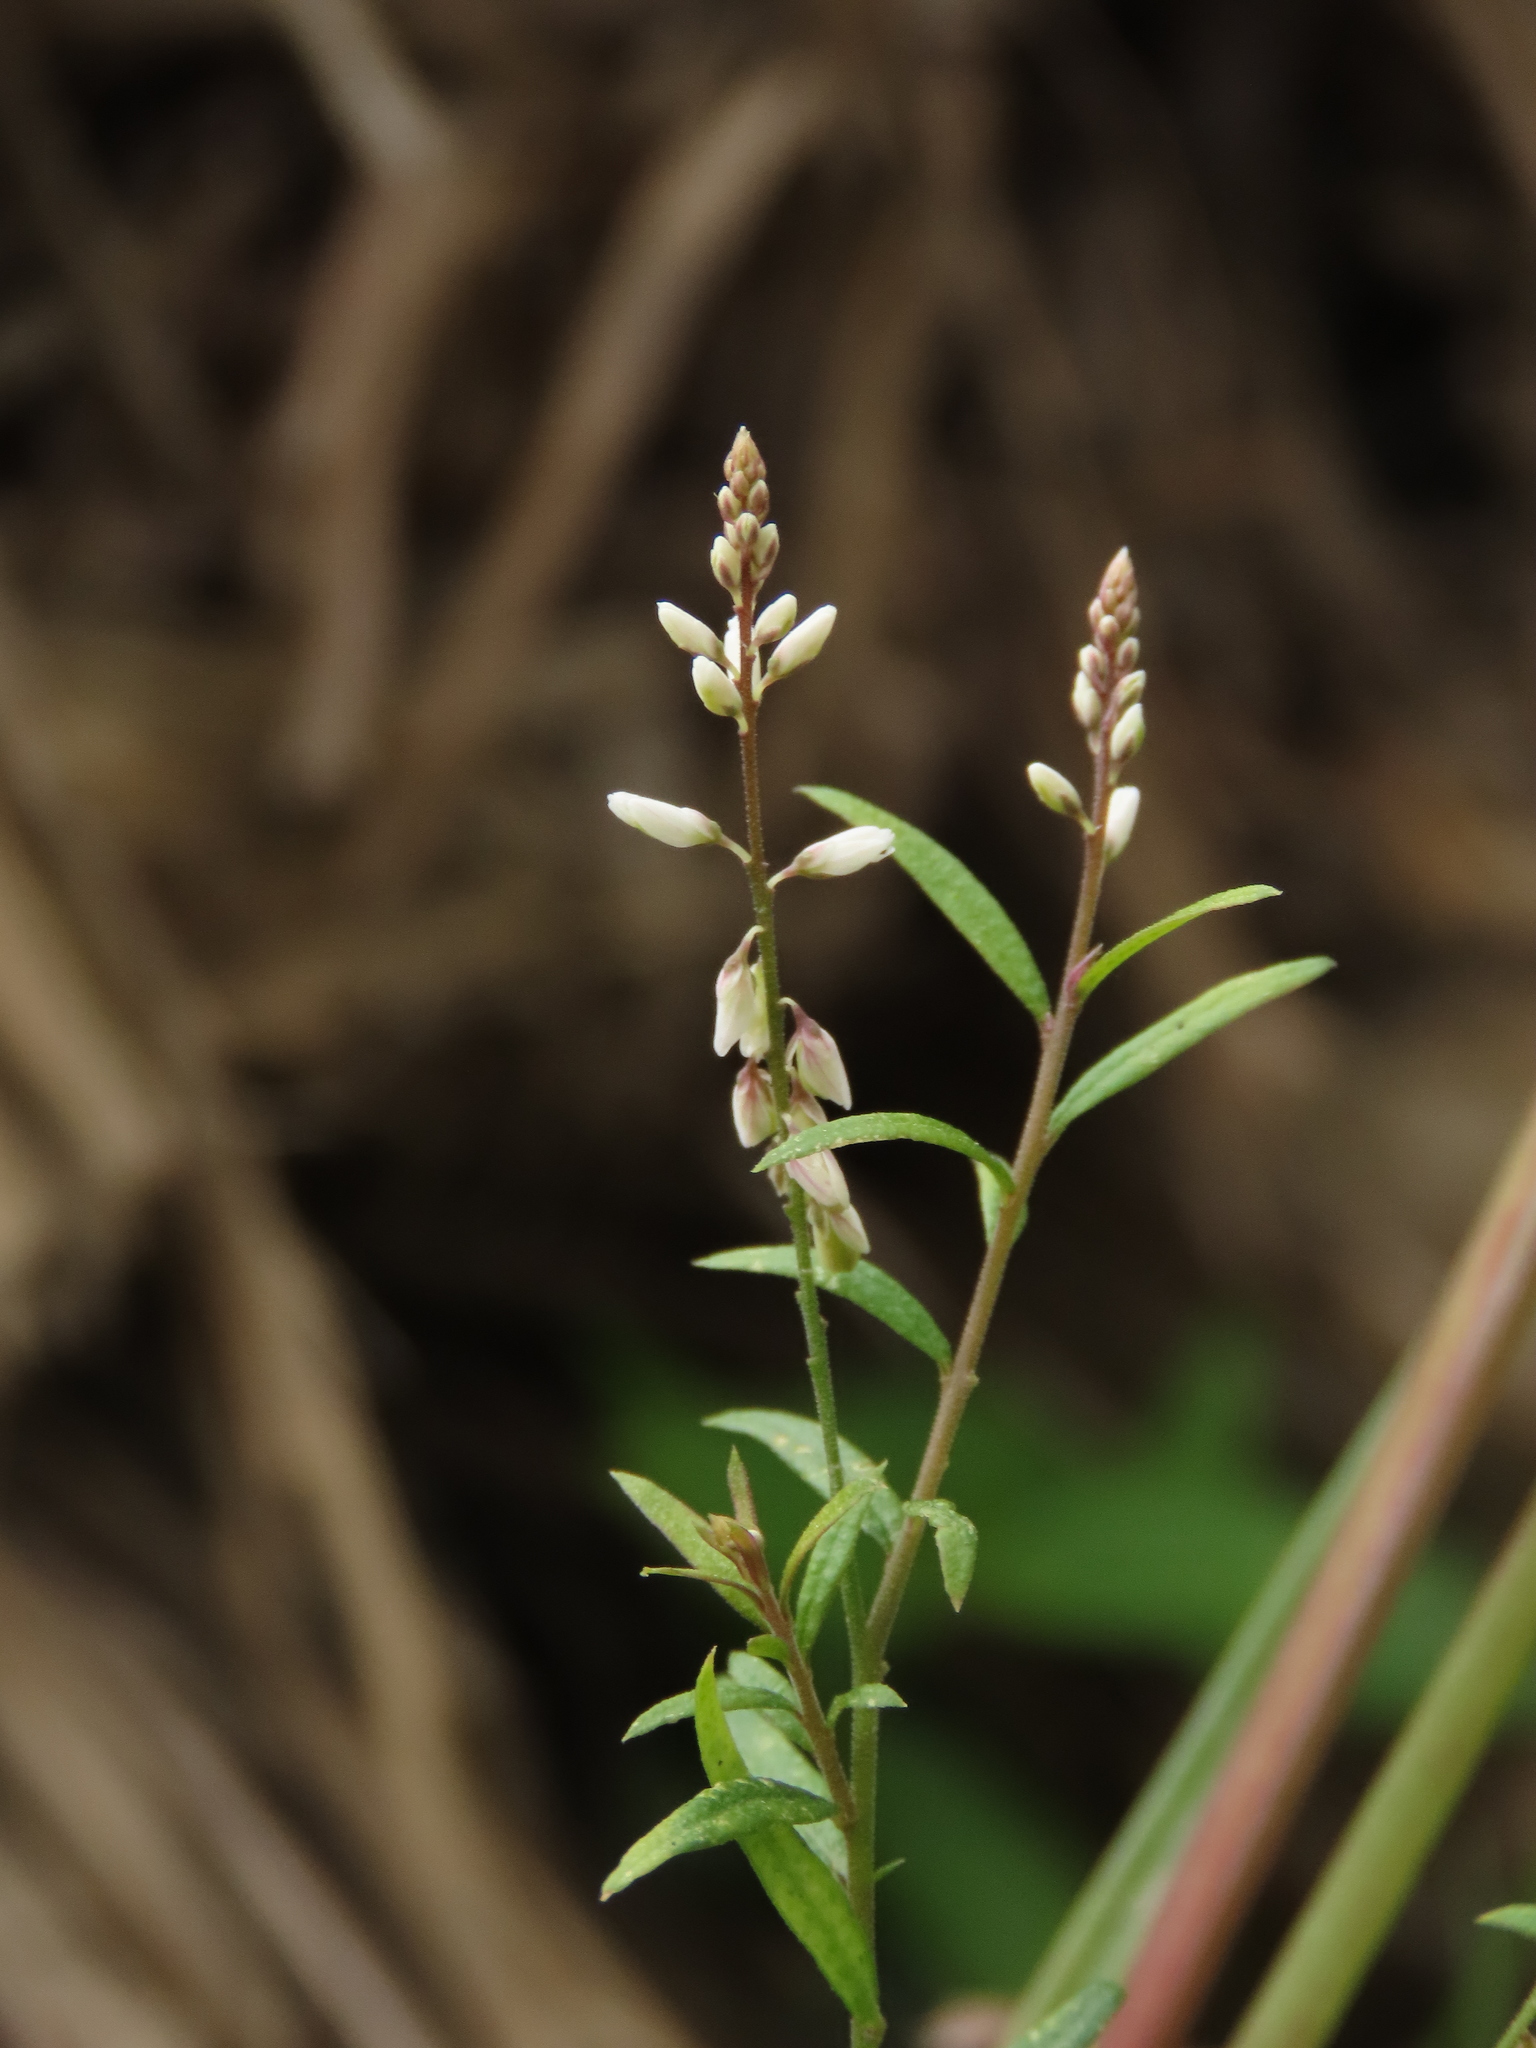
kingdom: Plantae
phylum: Tracheophyta
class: Magnoliopsida
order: Fabales
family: Polygalaceae
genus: Polygala
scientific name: Polygala paniculata
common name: Orosne
